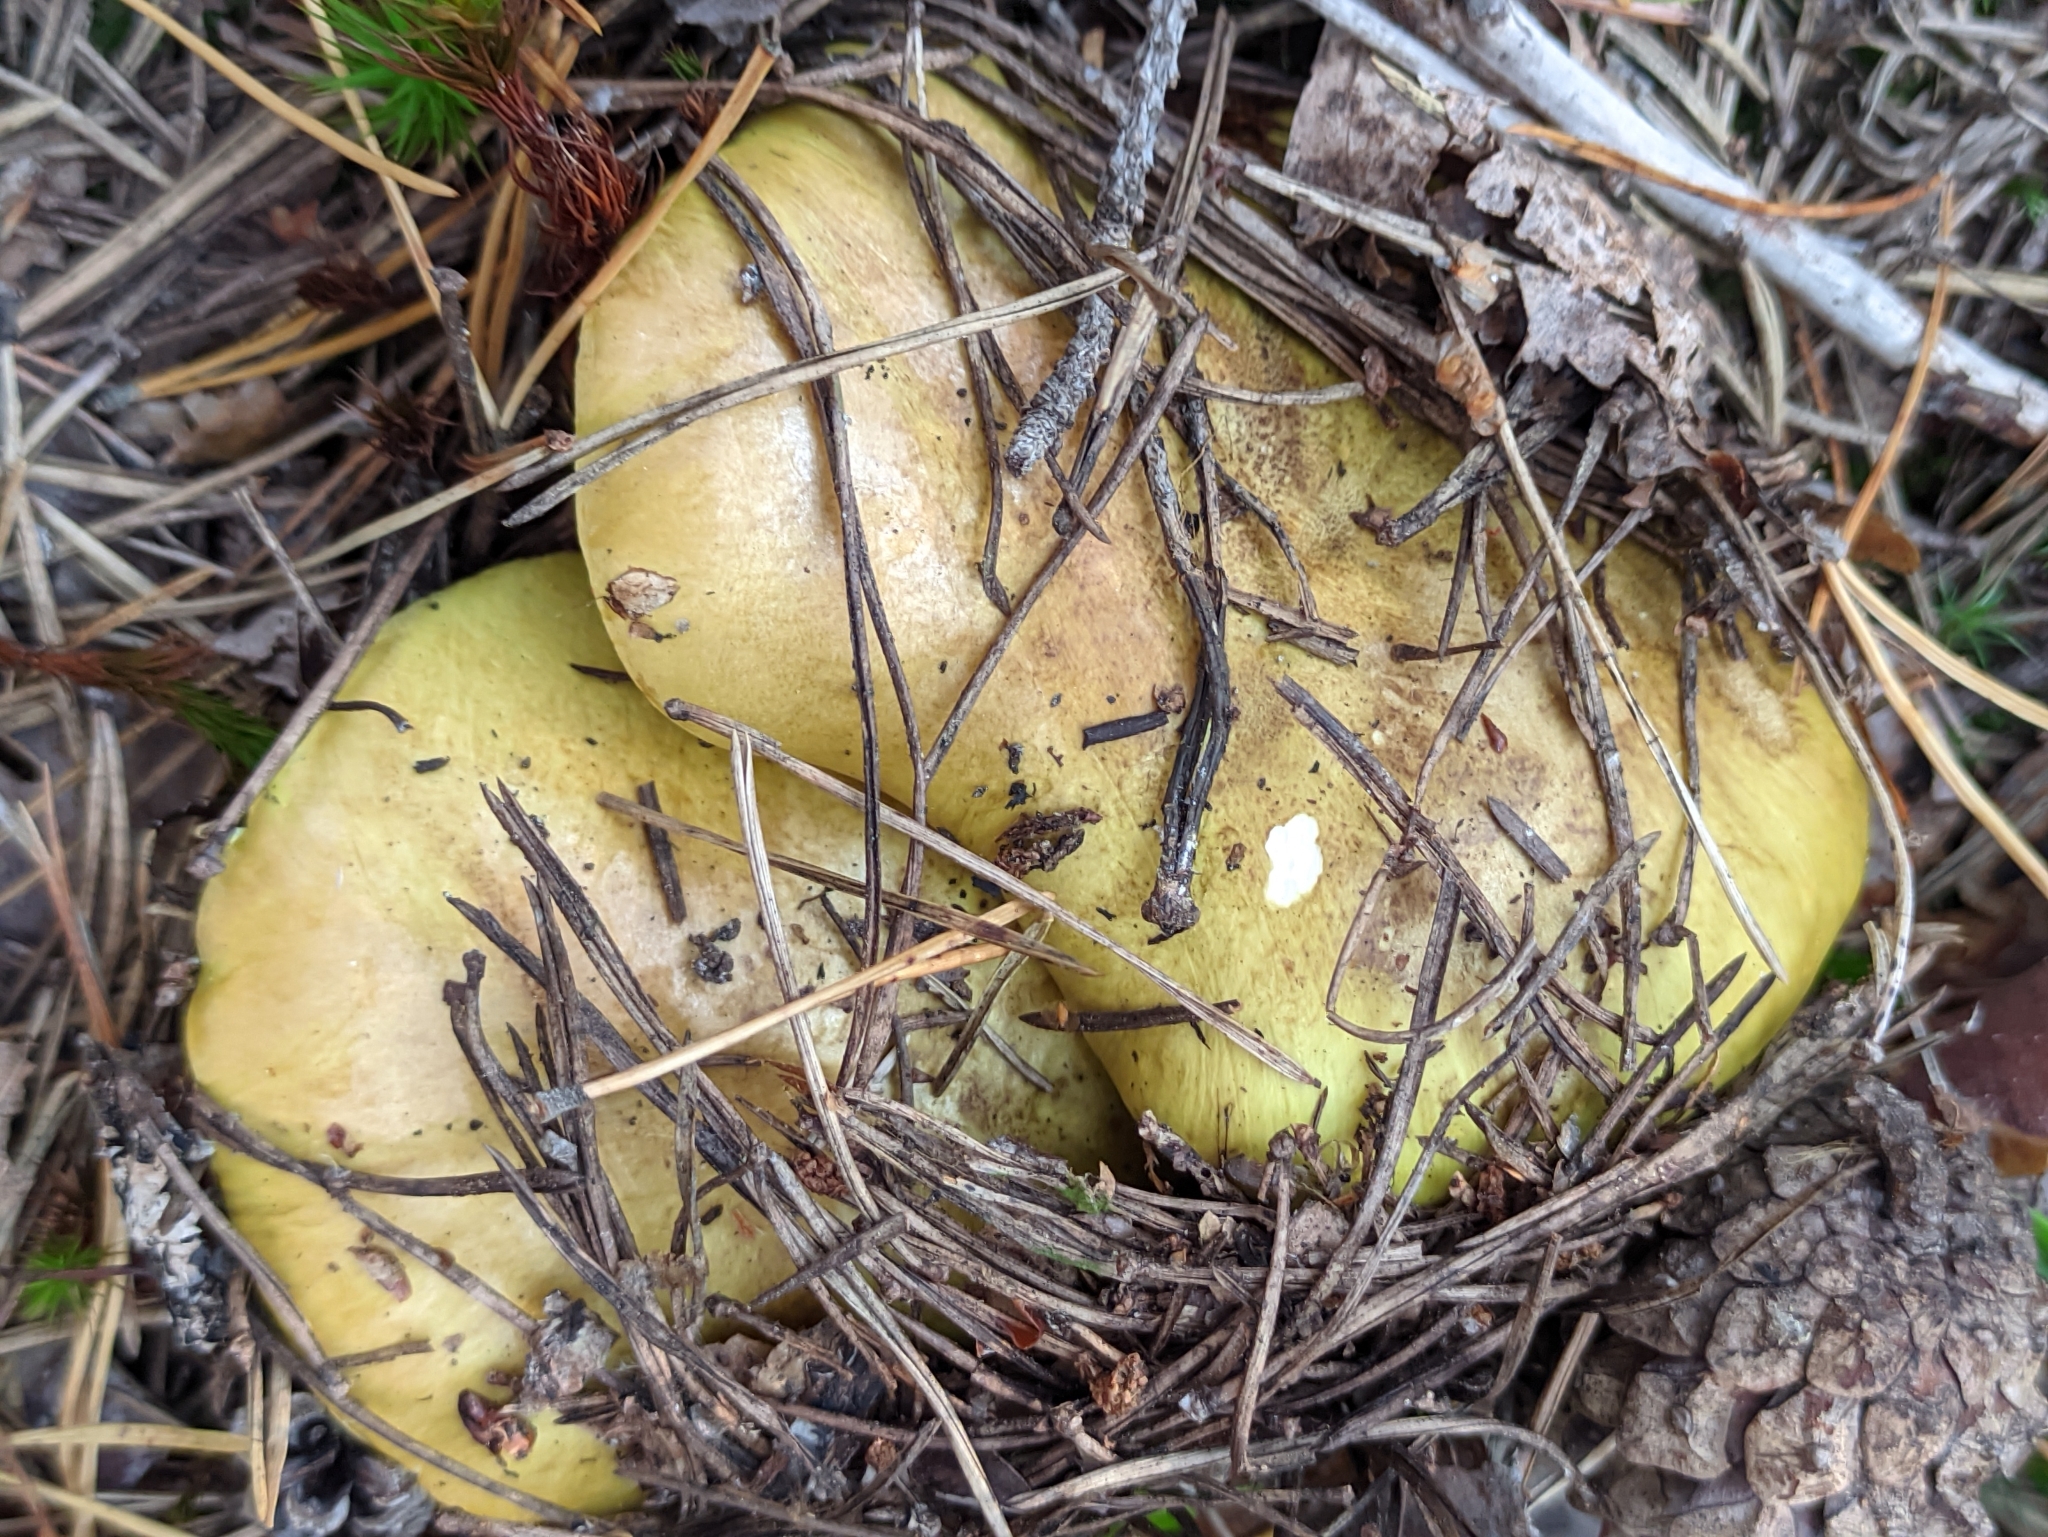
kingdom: Fungi
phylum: Basidiomycota
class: Agaricomycetes
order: Agaricales
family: Tricholomataceae
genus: Tricholoma
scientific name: Tricholoma equestre
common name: Yellow knight
